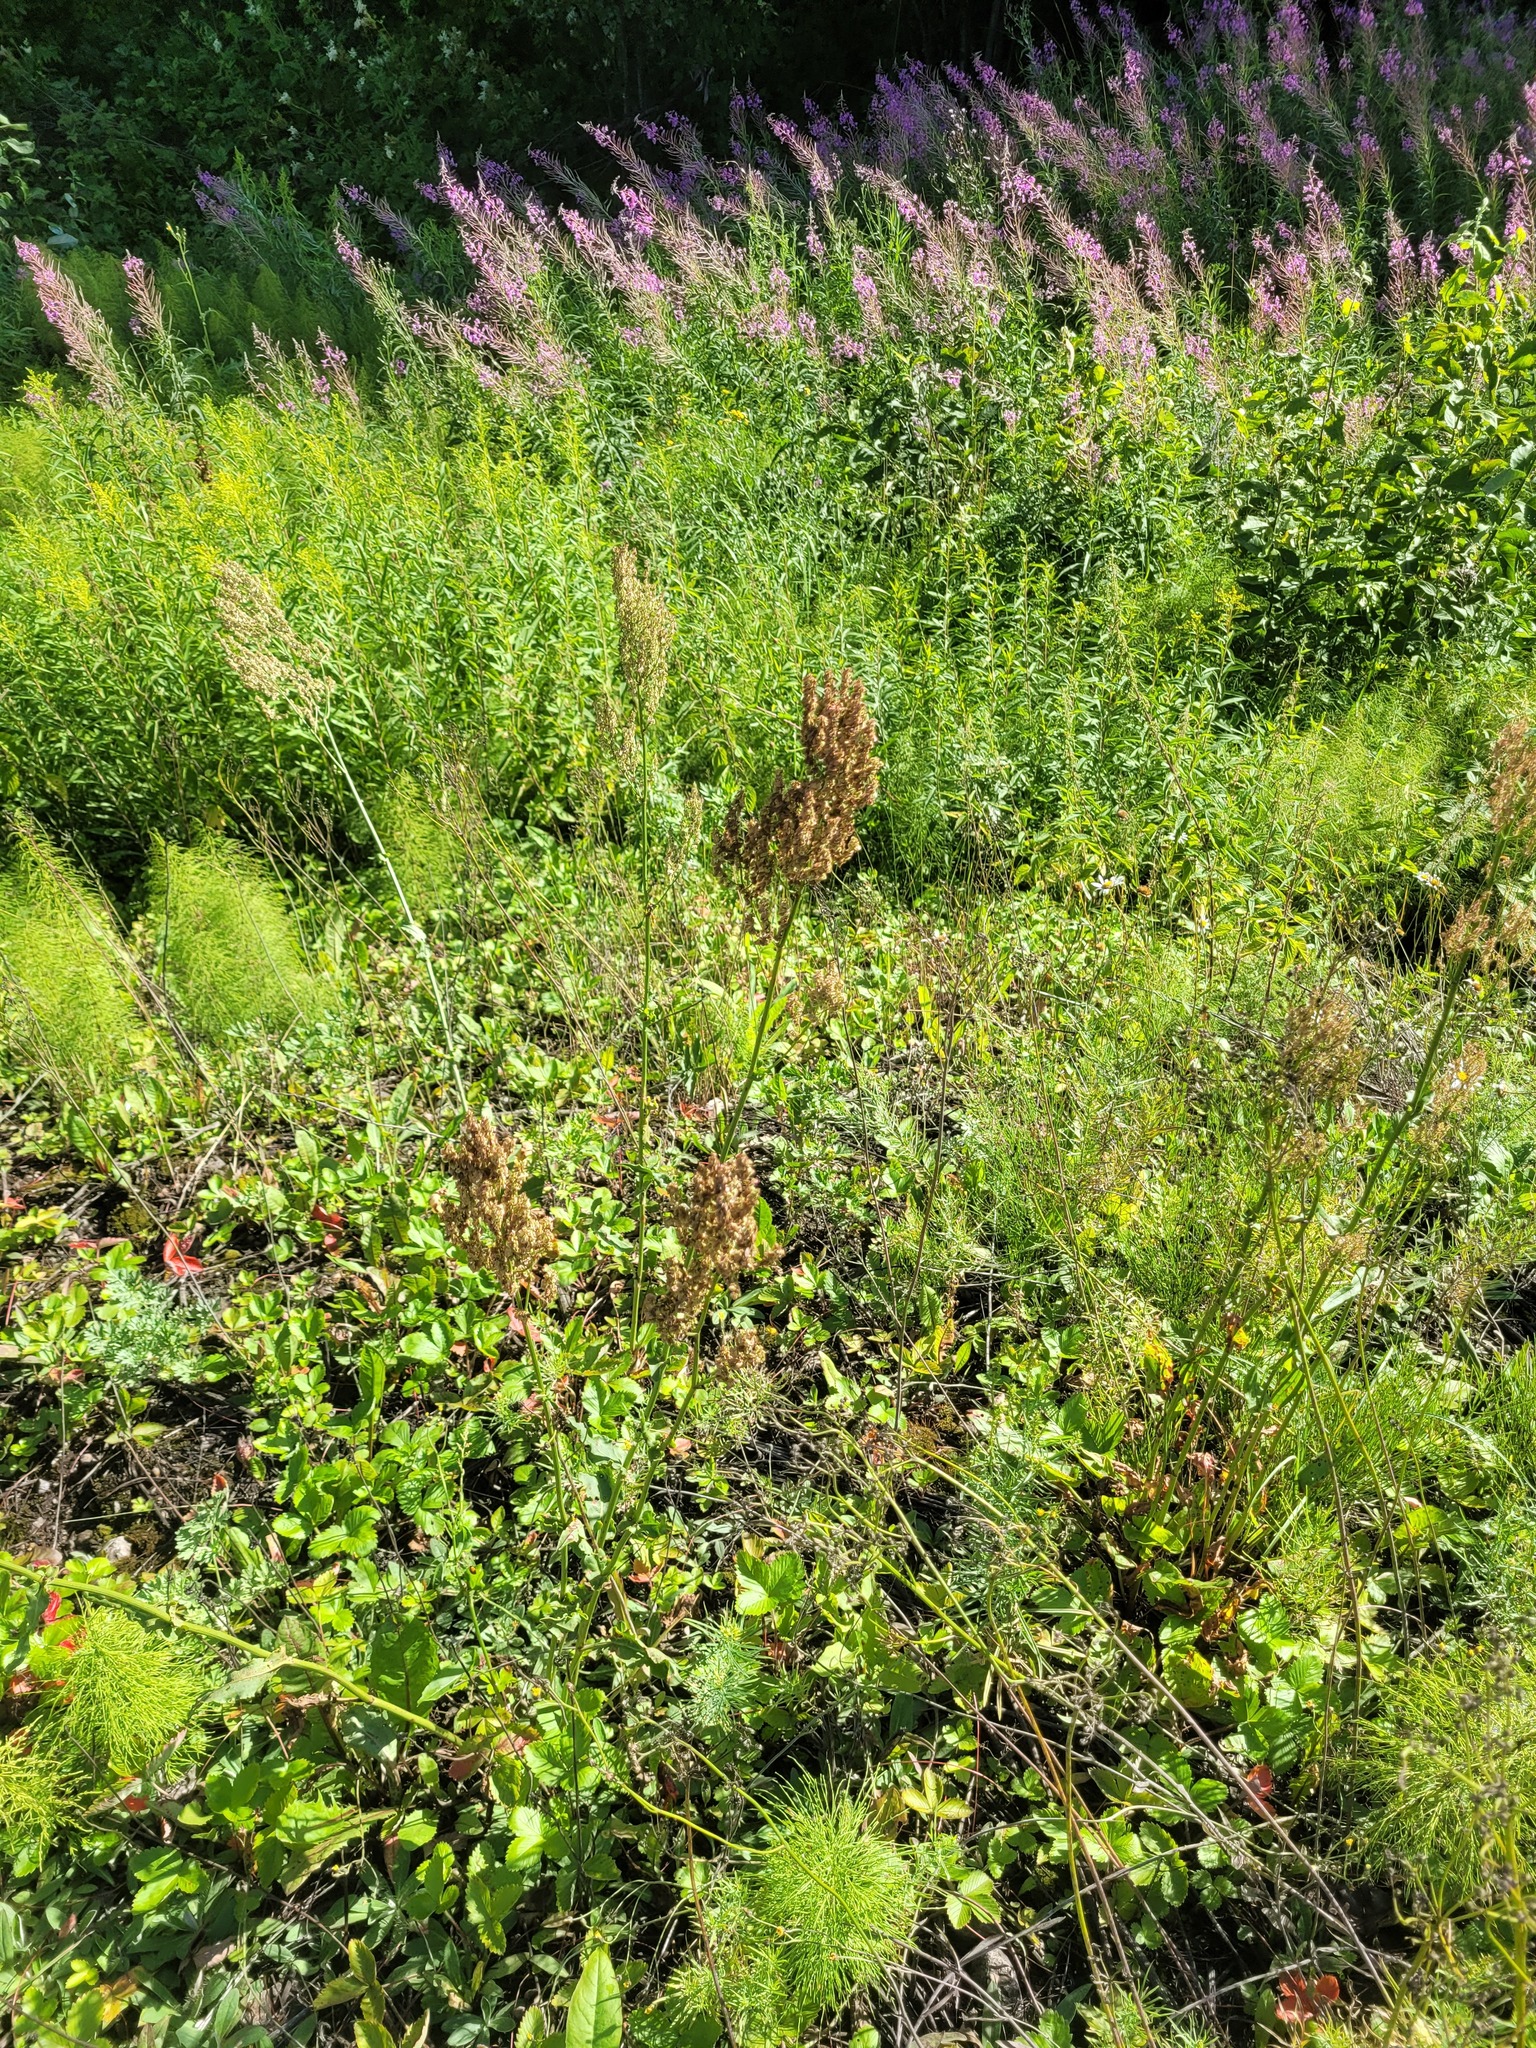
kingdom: Plantae
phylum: Tracheophyta
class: Magnoliopsida
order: Caryophyllales
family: Polygonaceae
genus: Rumex
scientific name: Rumex thyrsiflorus
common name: Garden sorrel
